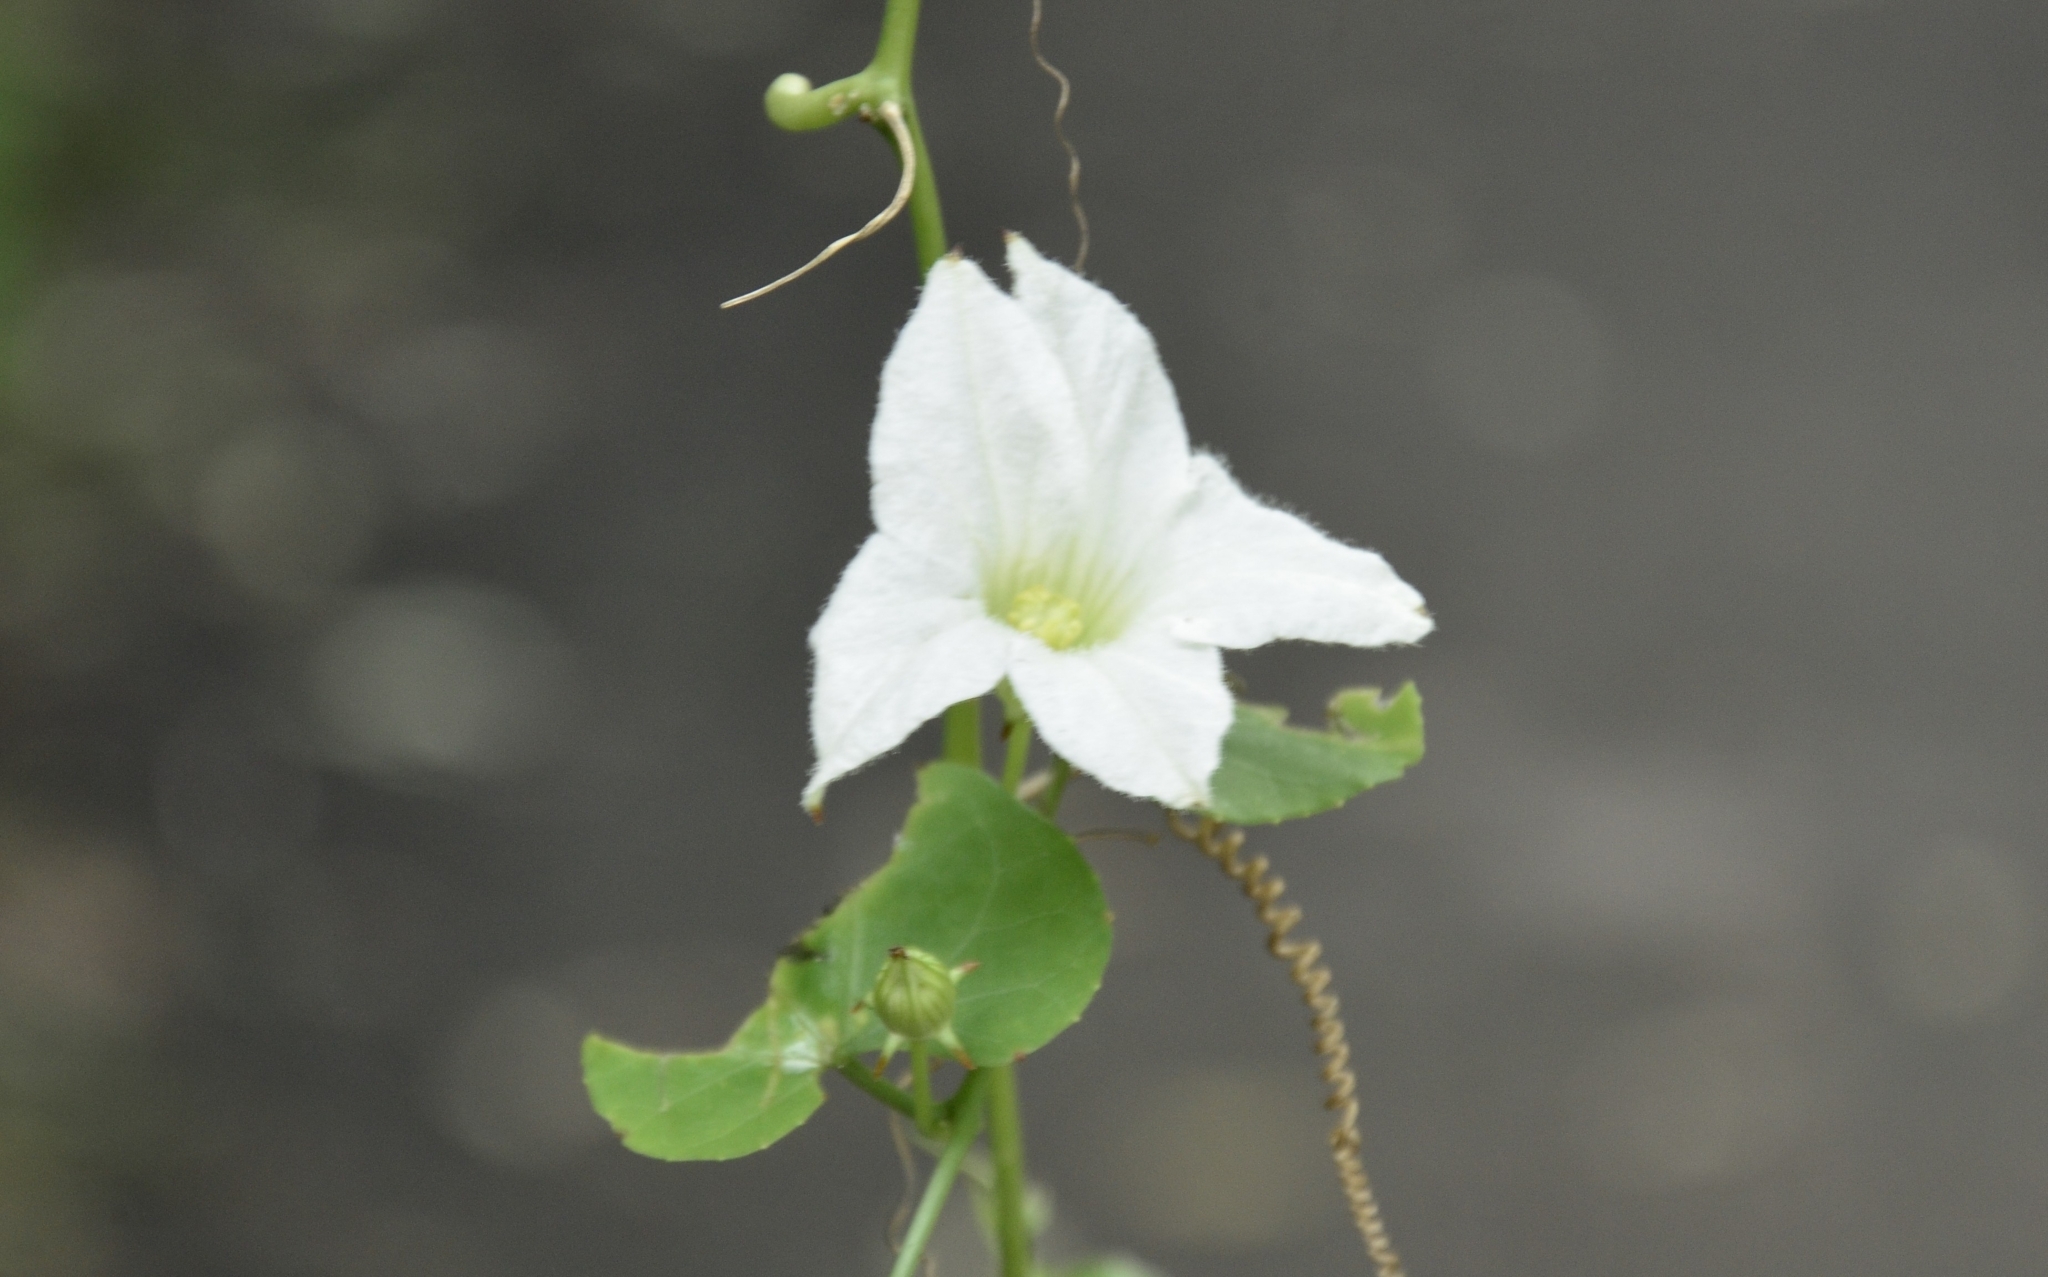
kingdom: Plantae
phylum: Tracheophyta
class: Magnoliopsida
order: Cucurbitales
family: Cucurbitaceae
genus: Coccinia
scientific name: Coccinia grandis
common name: Ivy gourd
